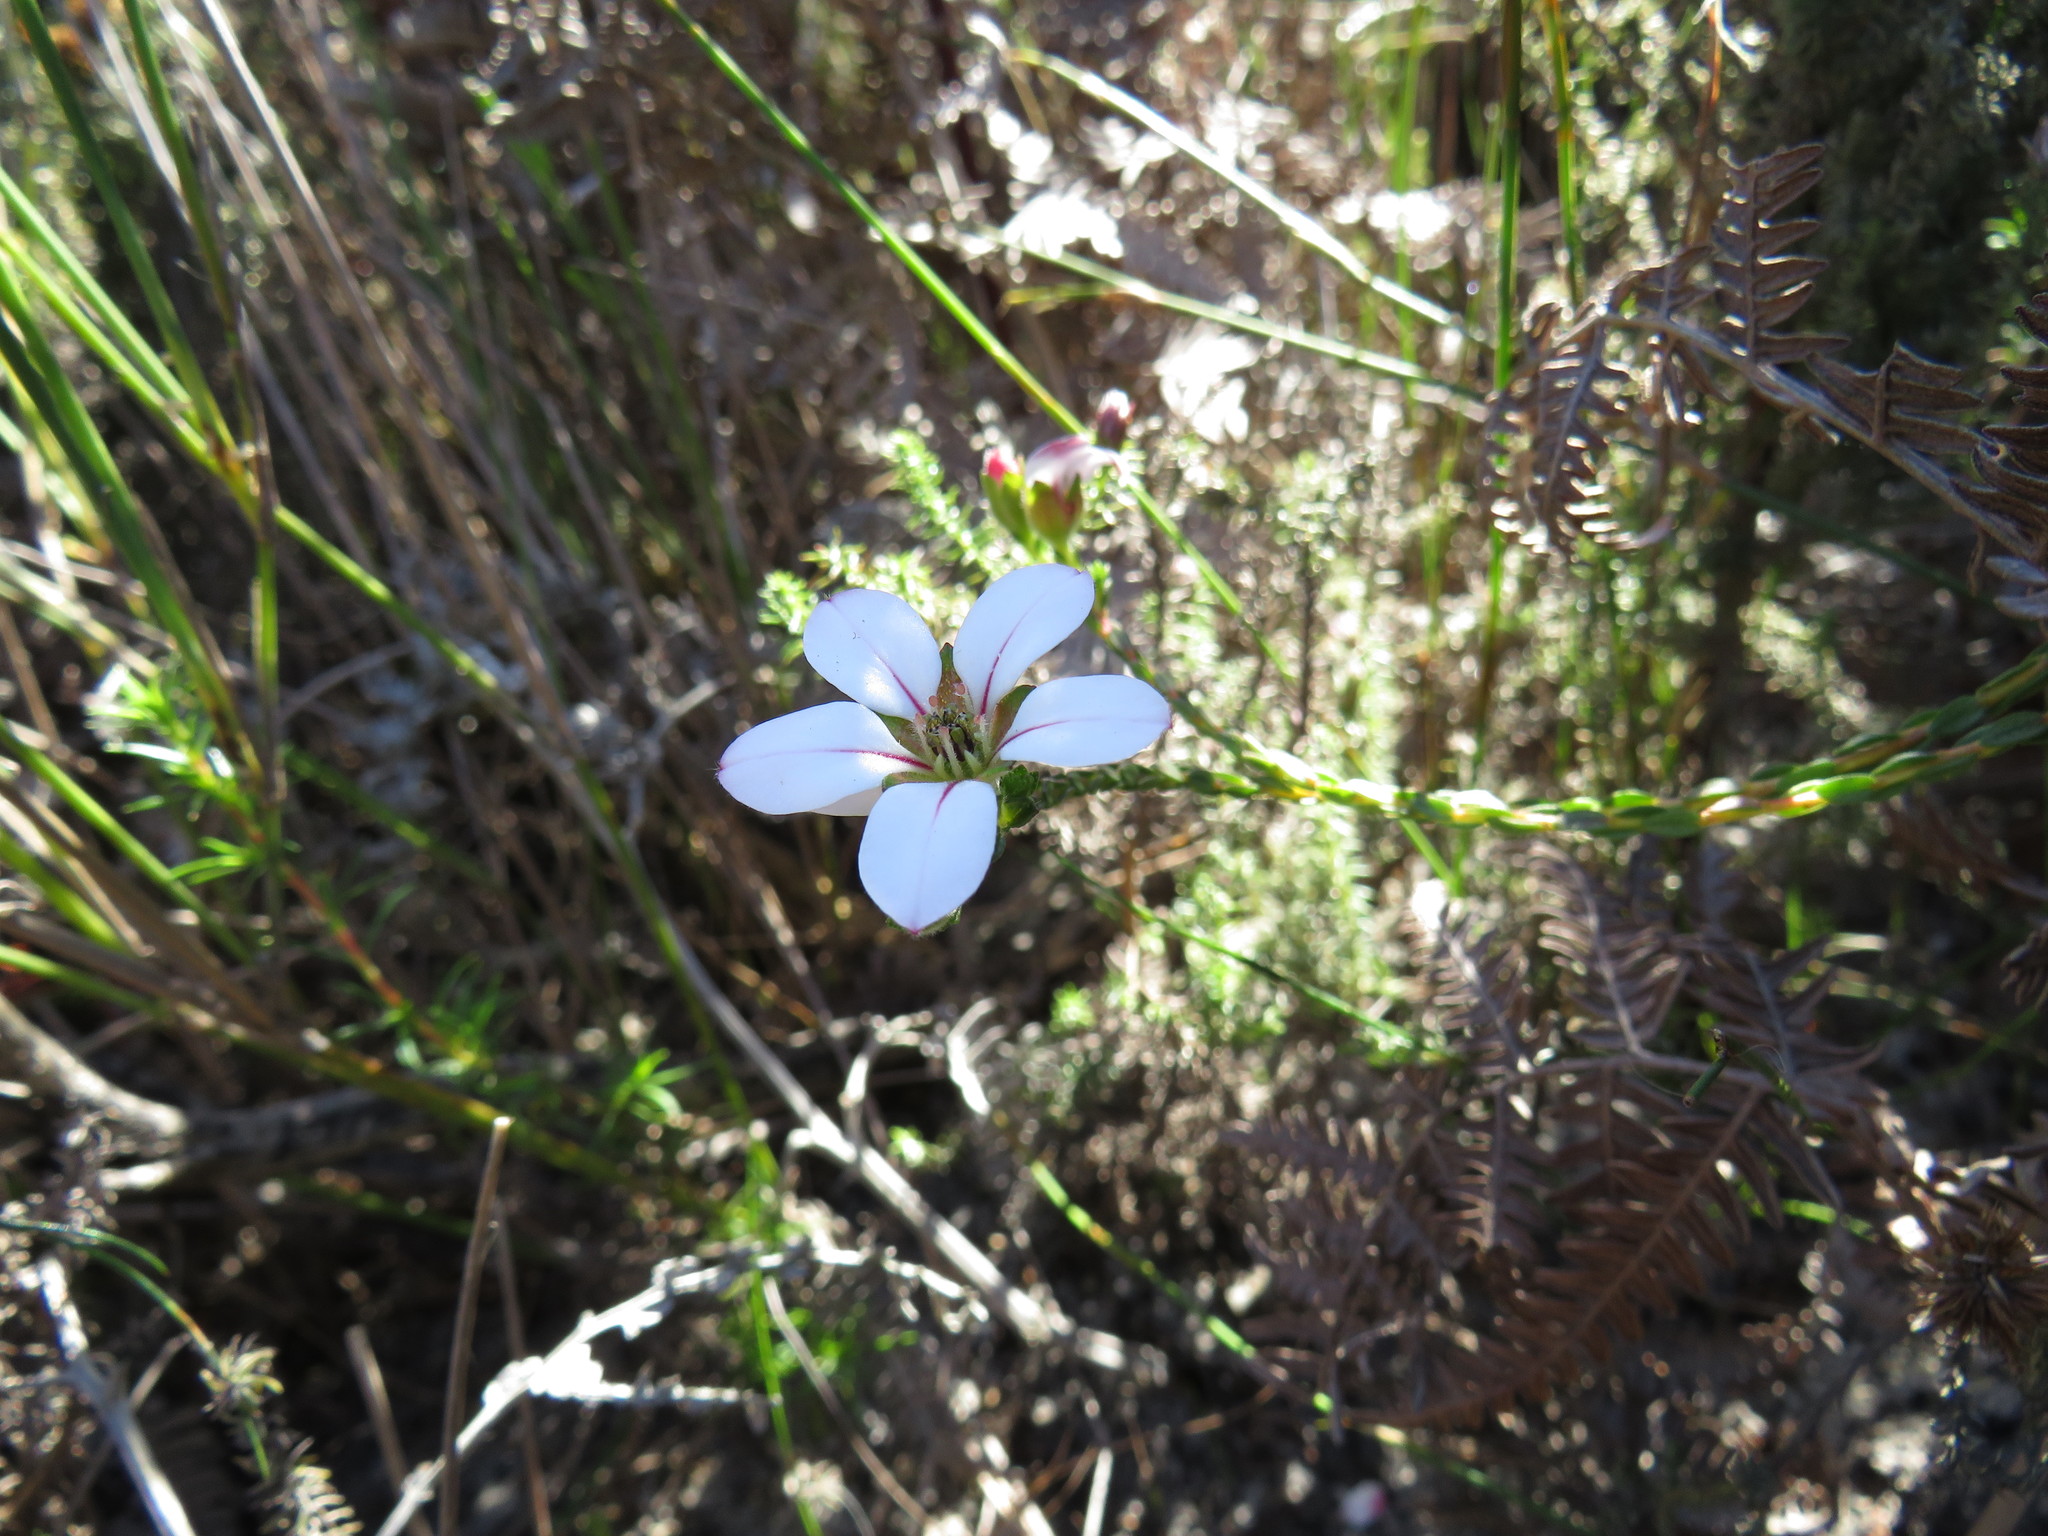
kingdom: Plantae
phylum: Tracheophyta
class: Magnoliopsida
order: Sapindales
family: Rutaceae
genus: Adenandra
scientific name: Adenandra villosa
